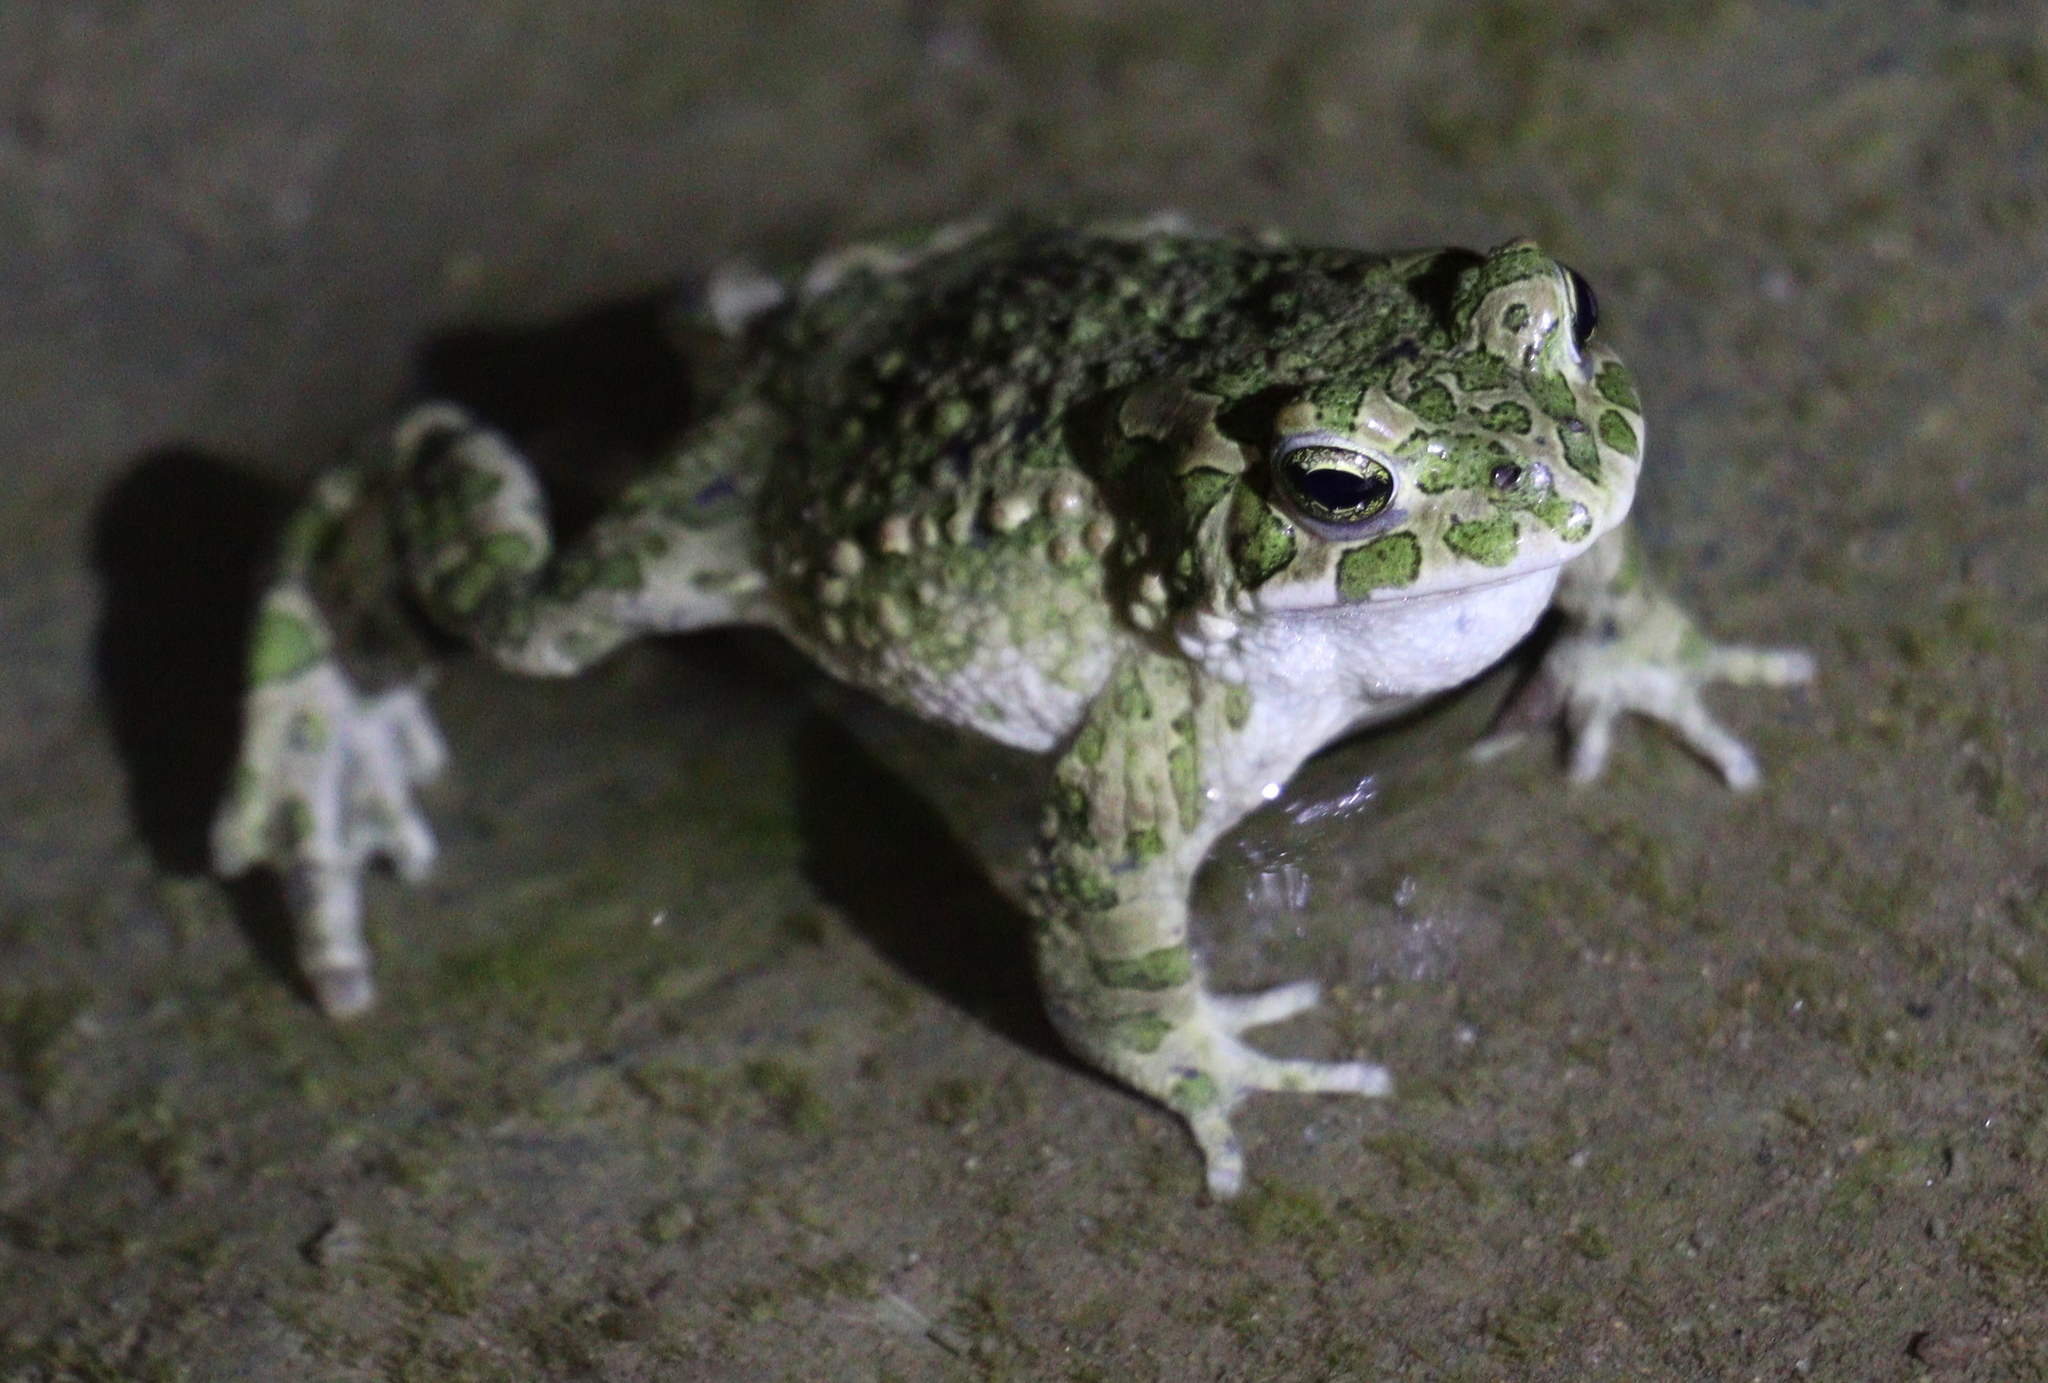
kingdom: Animalia
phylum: Chordata
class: Amphibia
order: Anura
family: Bufonidae
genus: Bufotes
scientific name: Bufotes viridis
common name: European green toad
